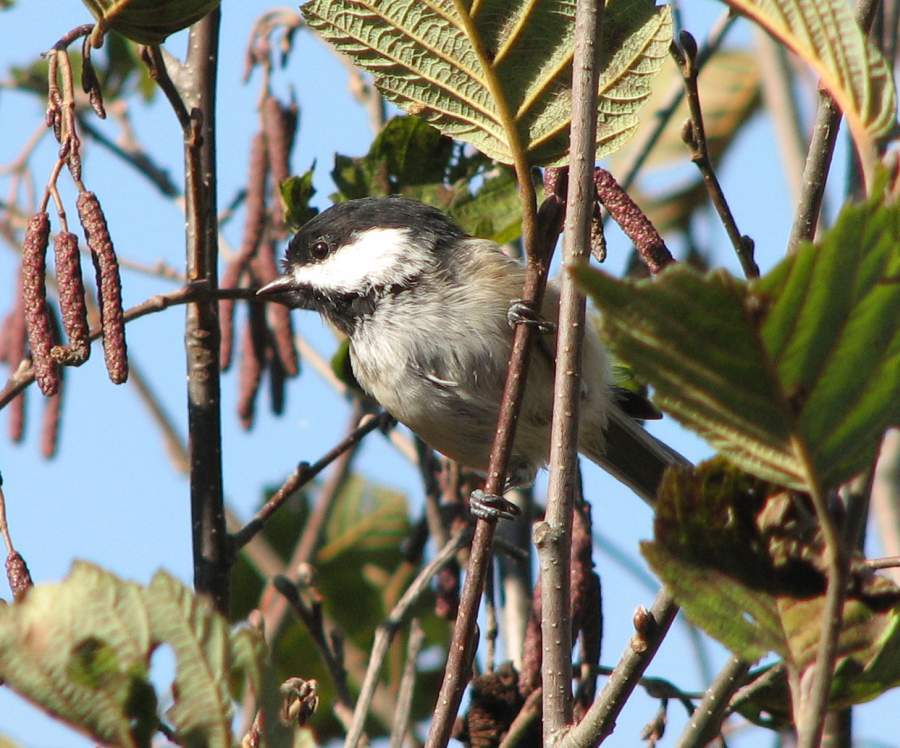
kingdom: Animalia
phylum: Chordata
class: Aves
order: Passeriformes
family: Paridae
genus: Poecile
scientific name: Poecile atricapillus
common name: Black-capped chickadee
